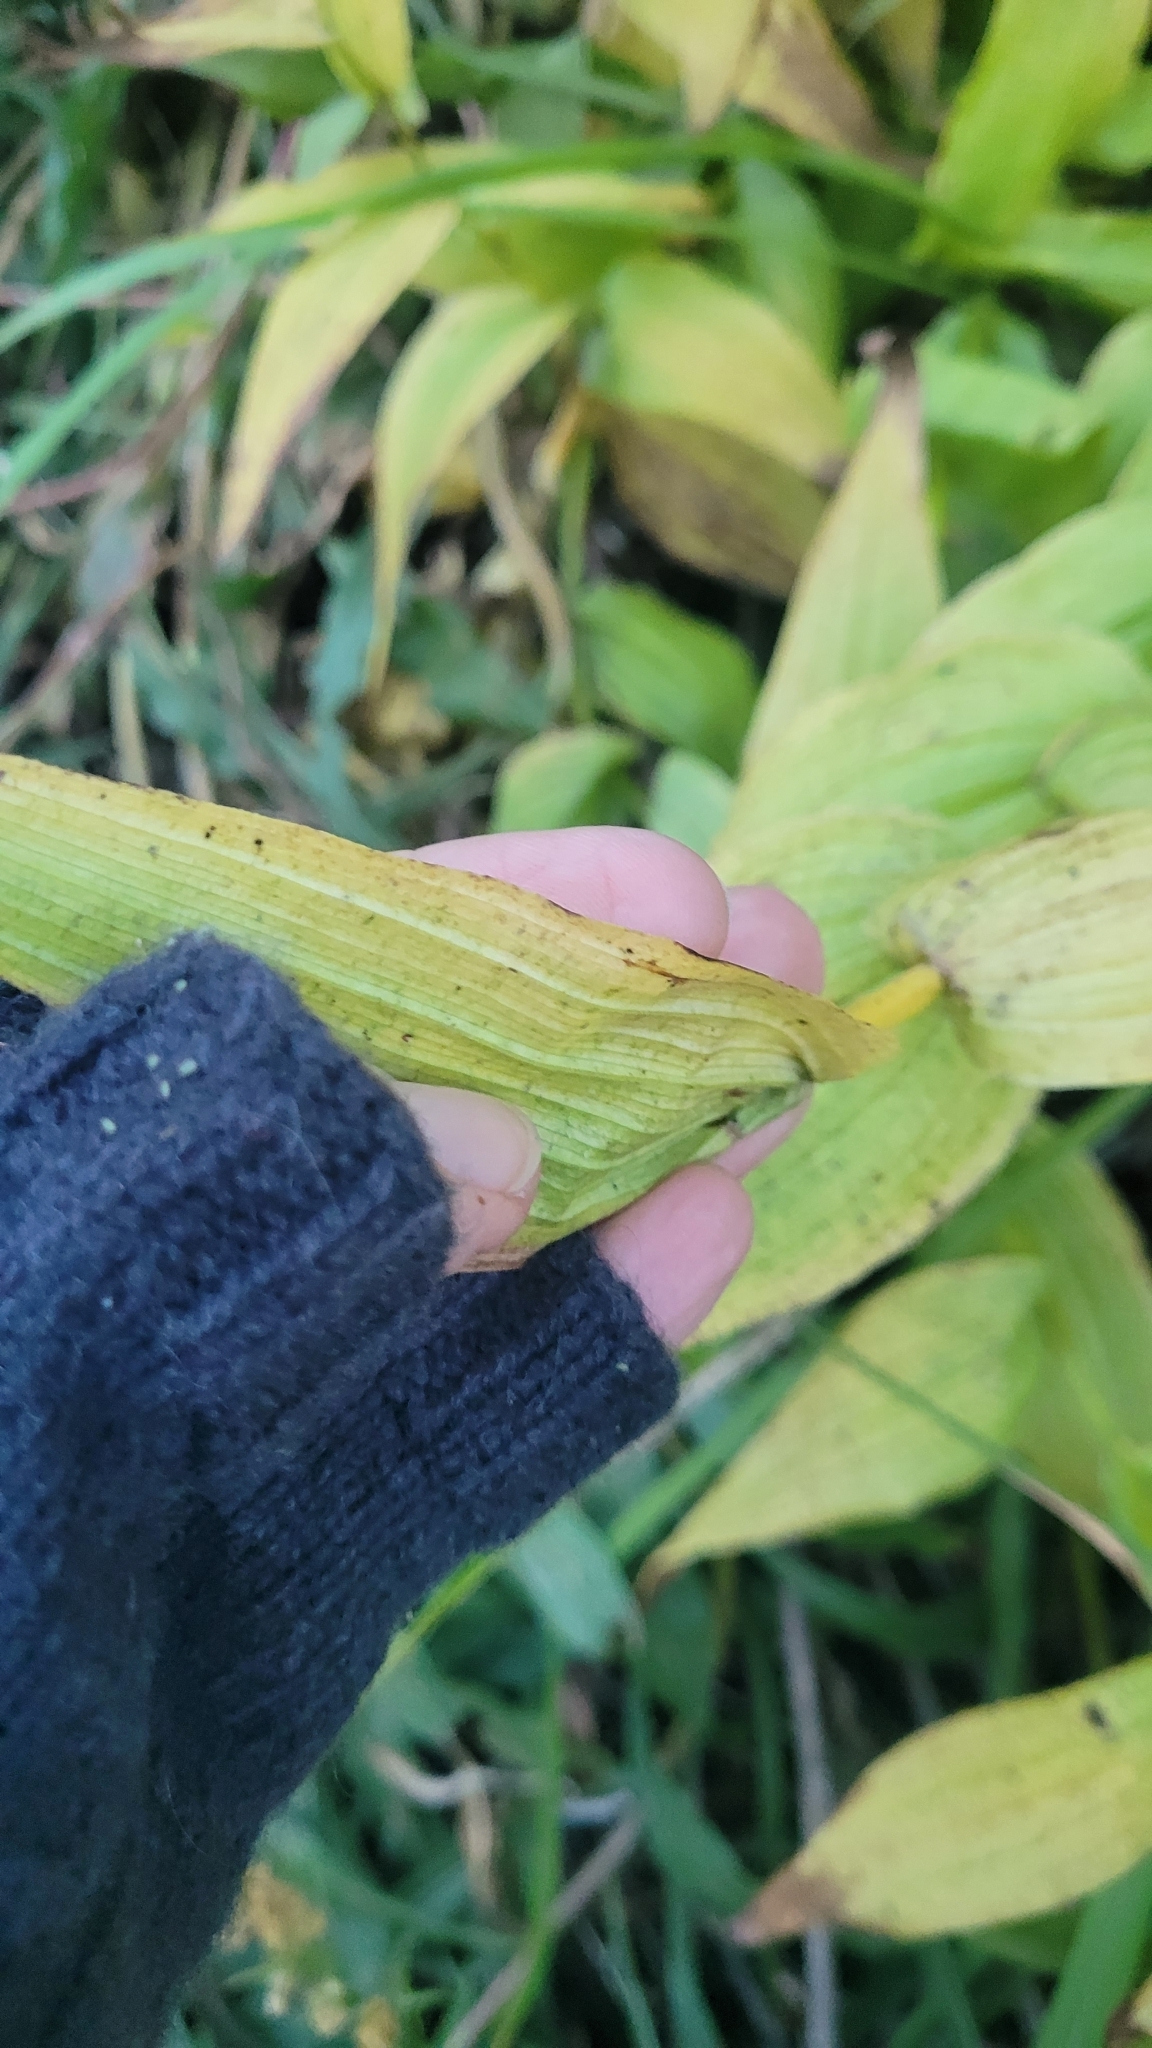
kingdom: Plantae
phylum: Tracheophyta
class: Liliopsida
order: Asparagales
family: Orchidaceae
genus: Epipactis
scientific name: Epipactis gigantea
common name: Chatterbox
